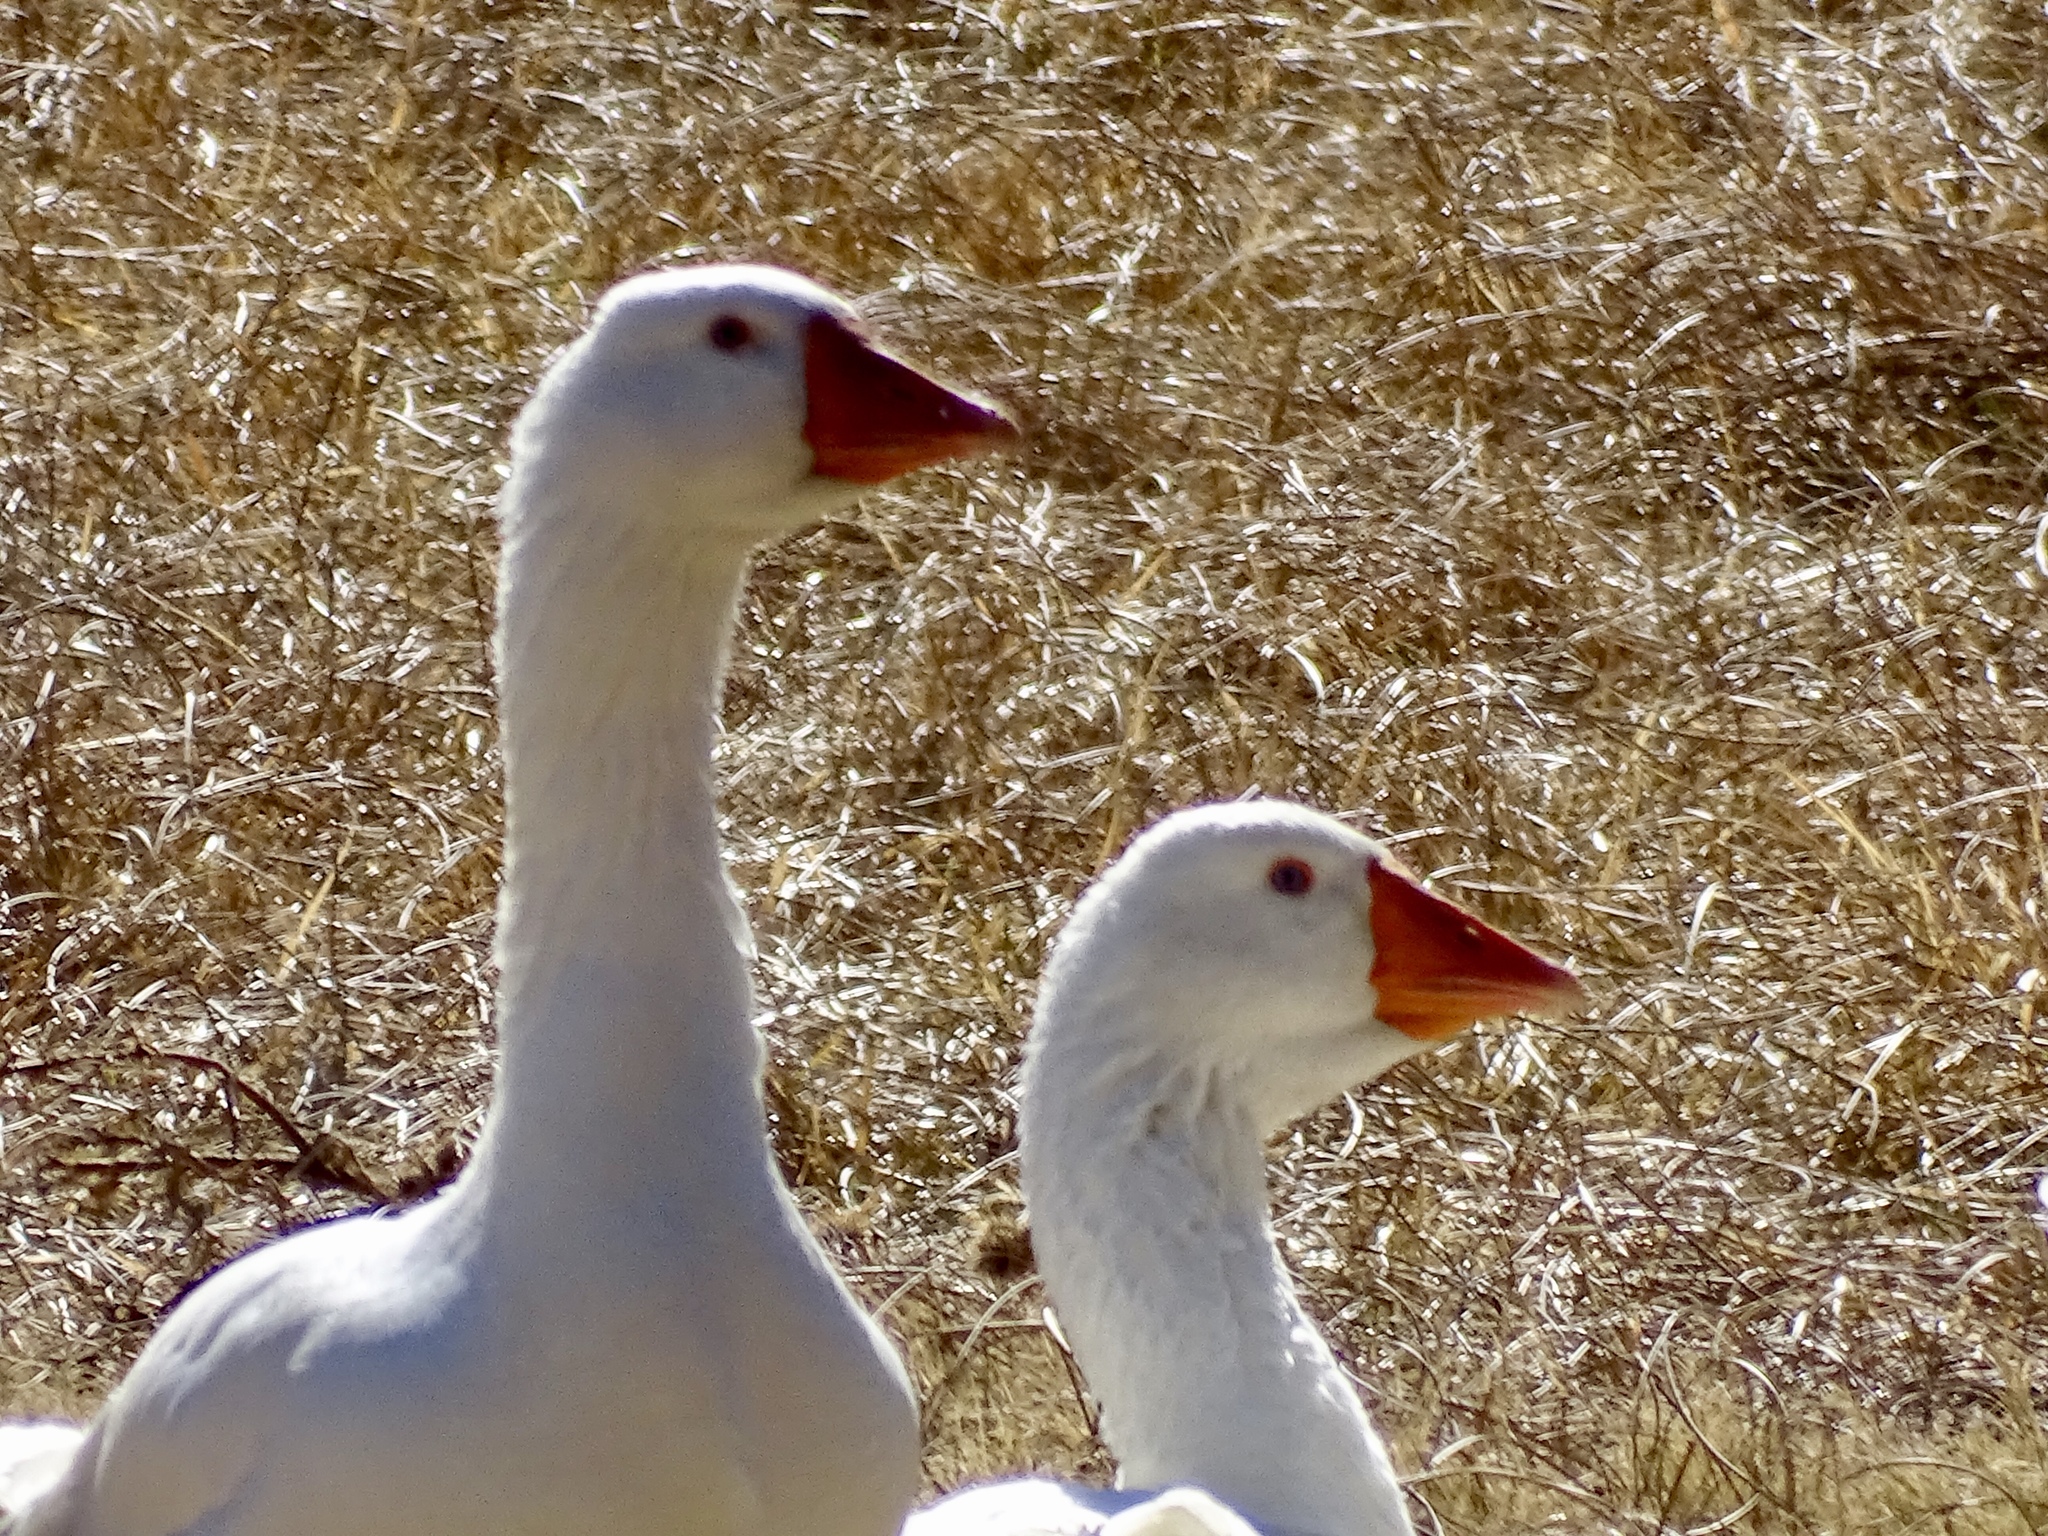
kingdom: Animalia
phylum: Chordata
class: Aves
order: Anseriformes
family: Anatidae
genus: Anser
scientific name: Anser anser
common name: Greylag goose
